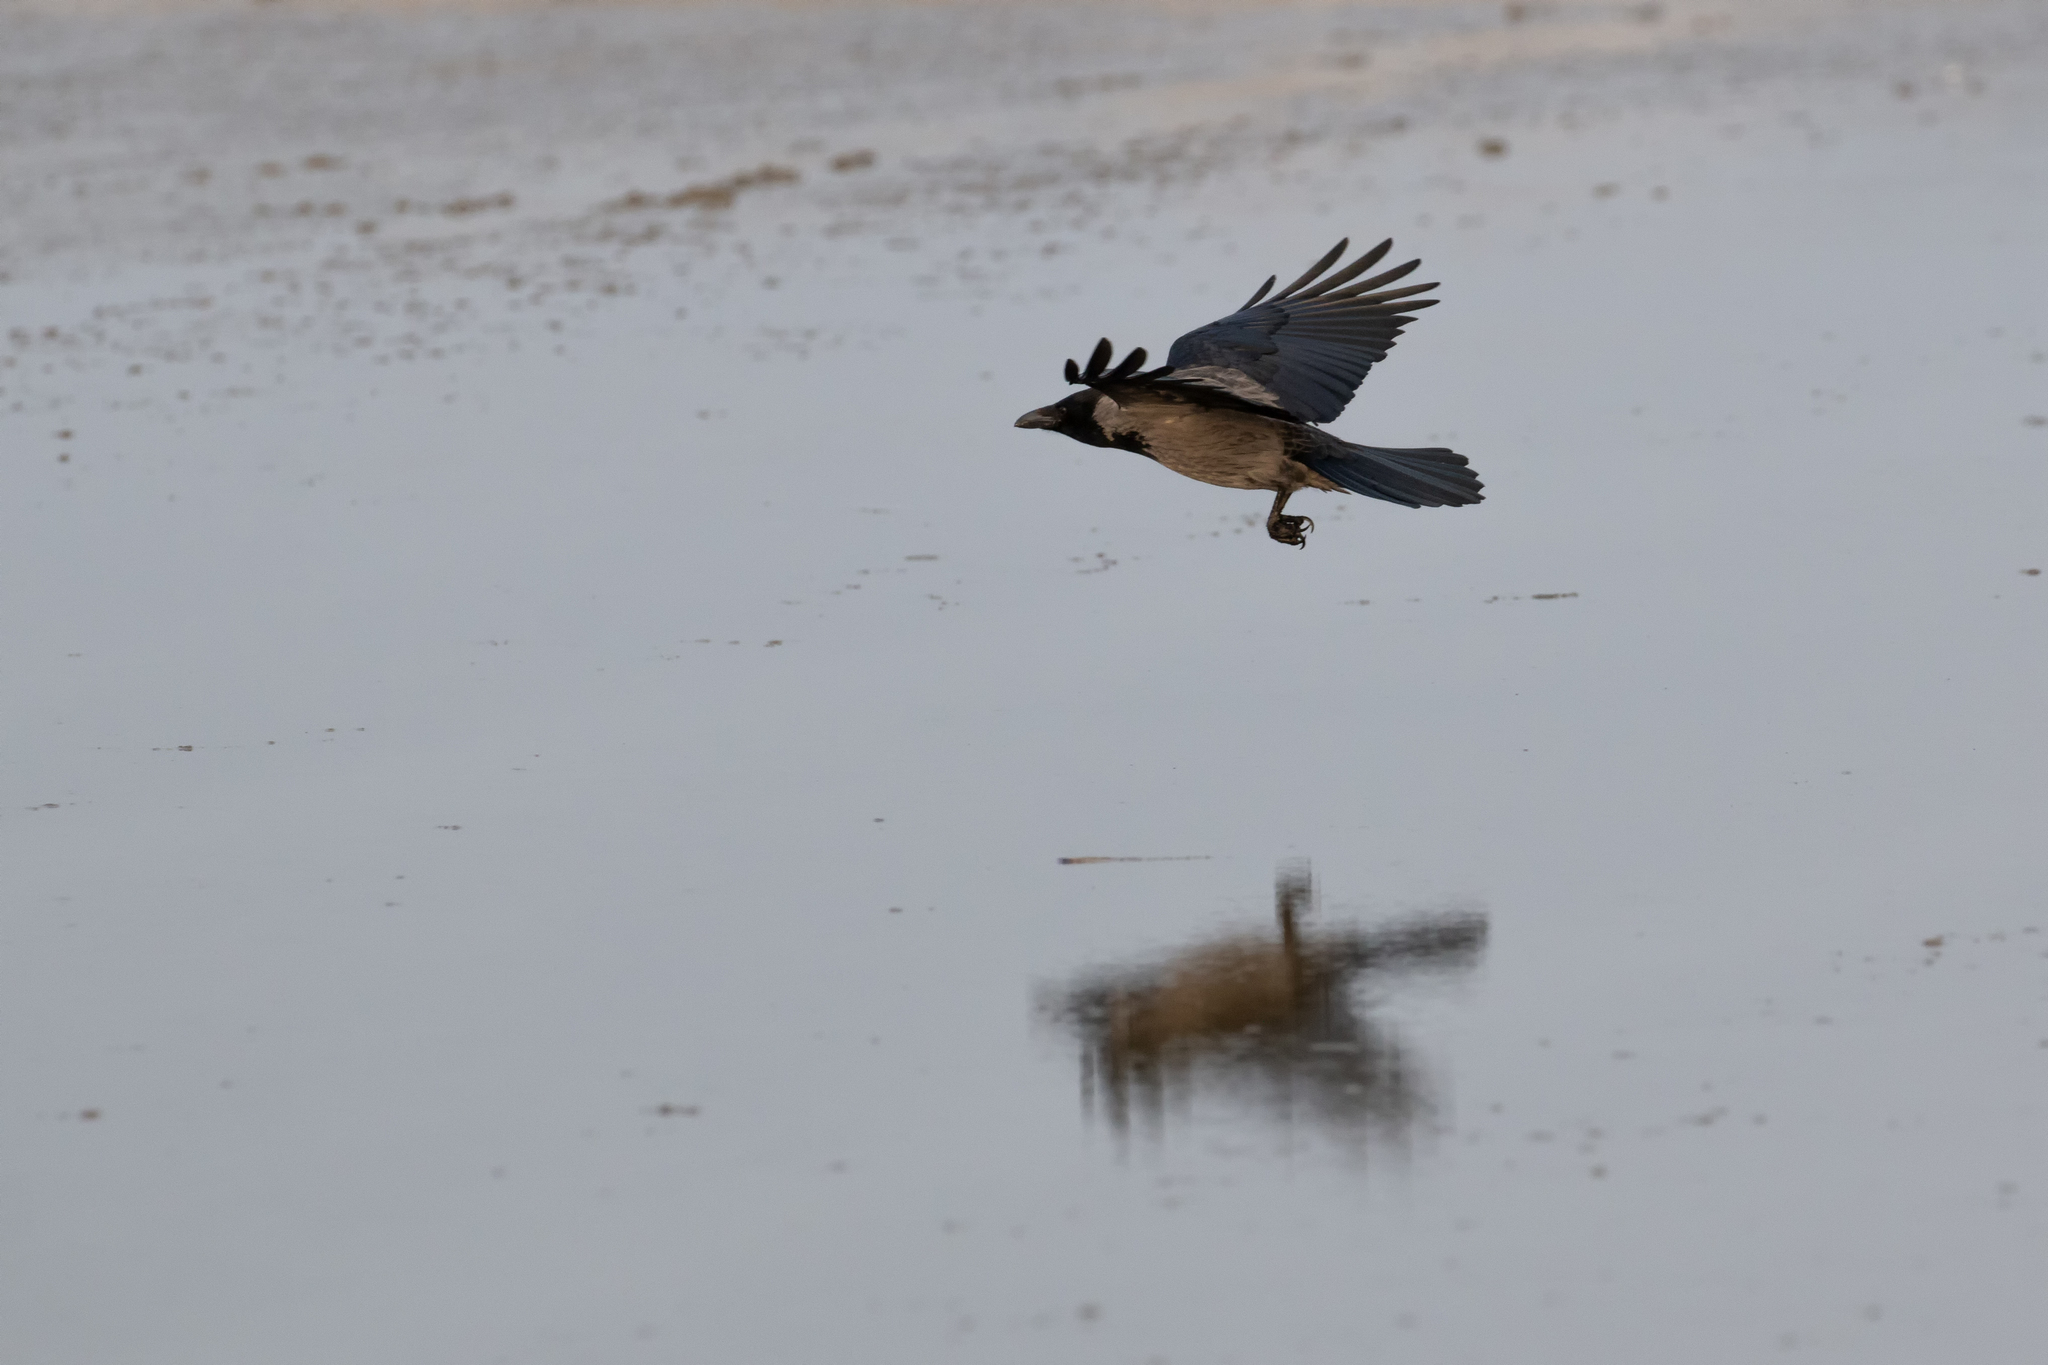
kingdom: Animalia
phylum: Chordata
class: Aves
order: Passeriformes
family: Corvidae
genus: Corvus
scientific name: Corvus cornix
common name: Hooded crow
